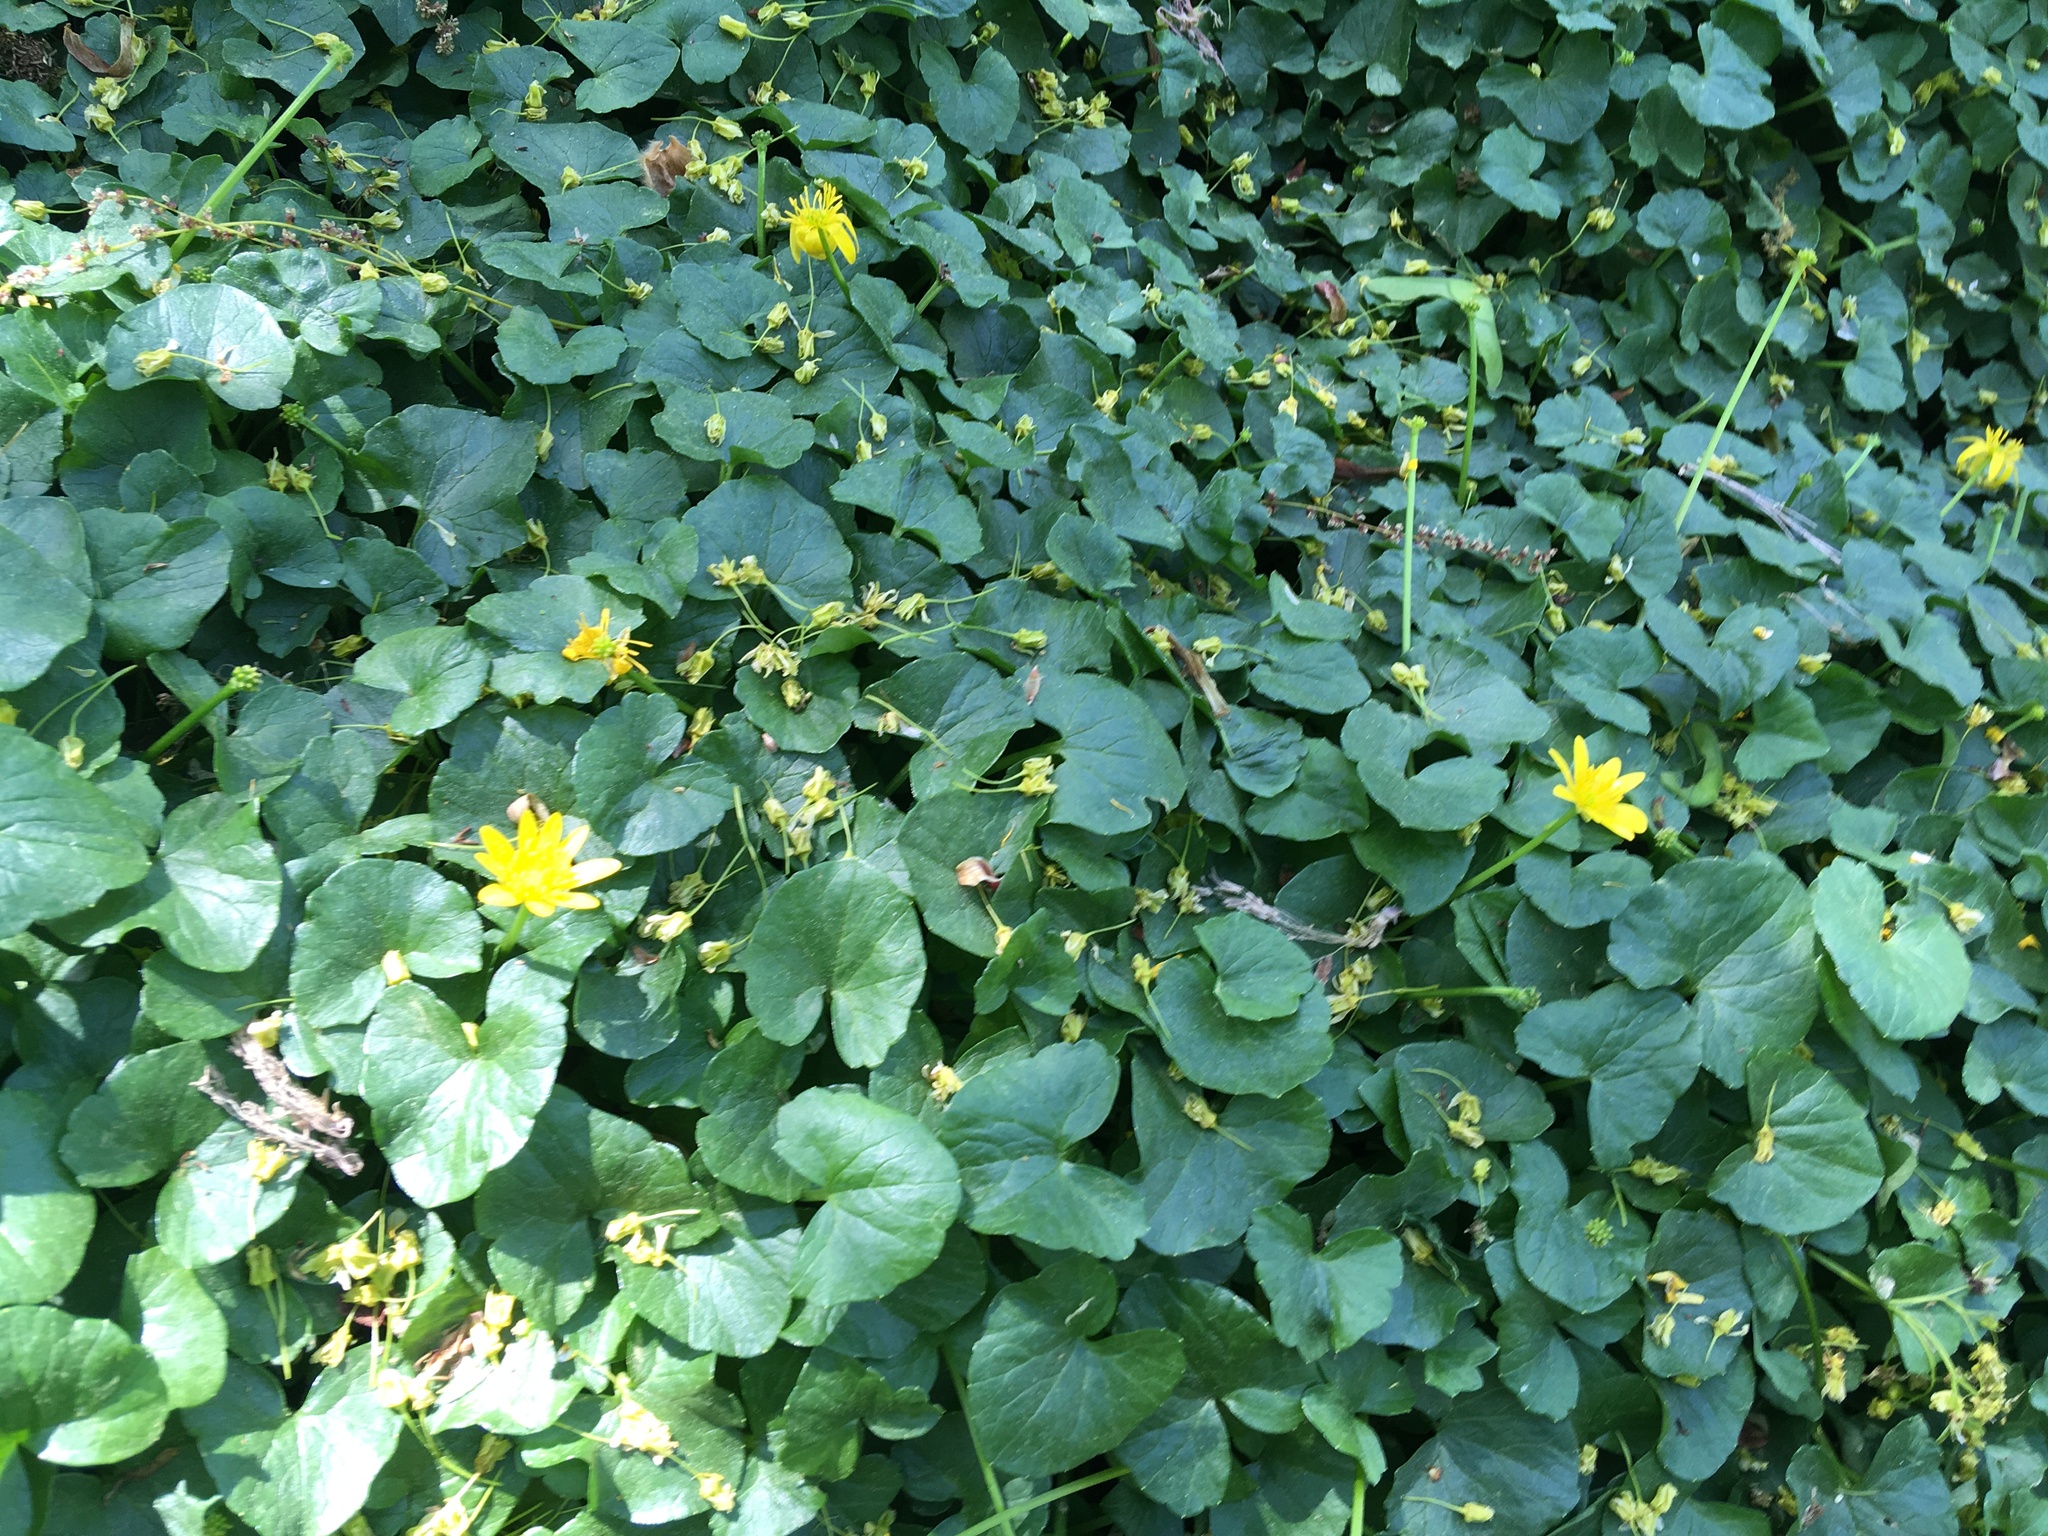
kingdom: Plantae
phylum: Tracheophyta
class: Magnoliopsida
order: Ranunculales
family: Ranunculaceae
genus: Ficaria
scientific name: Ficaria verna
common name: Lesser celandine
